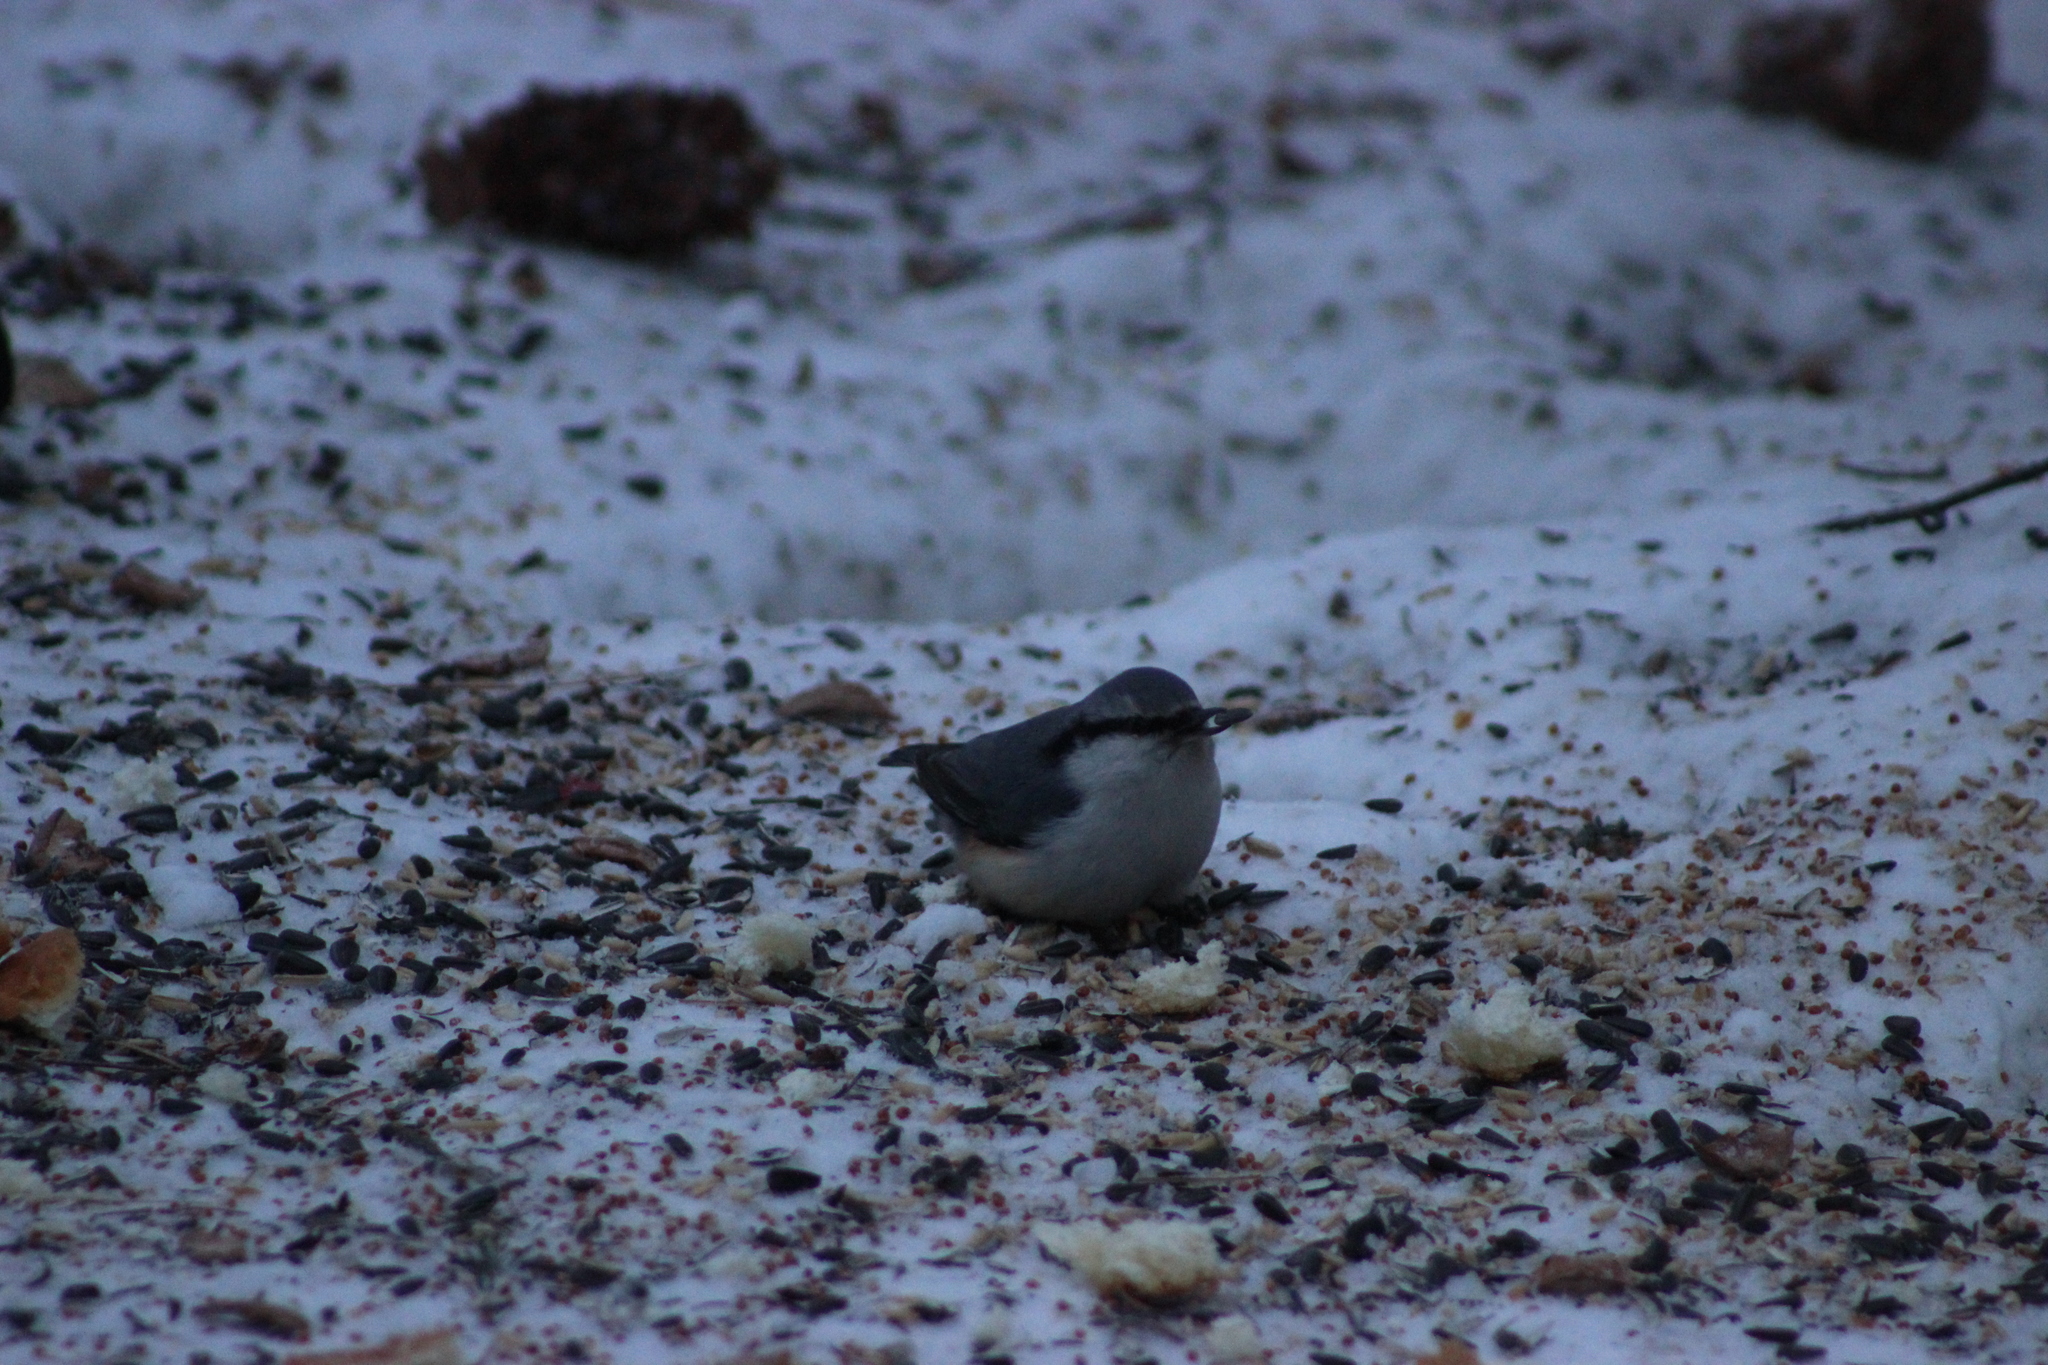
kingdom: Animalia
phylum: Chordata
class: Aves
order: Passeriformes
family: Sittidae
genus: Sitta
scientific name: Sitta europaea
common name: Eurasian nuthatch
